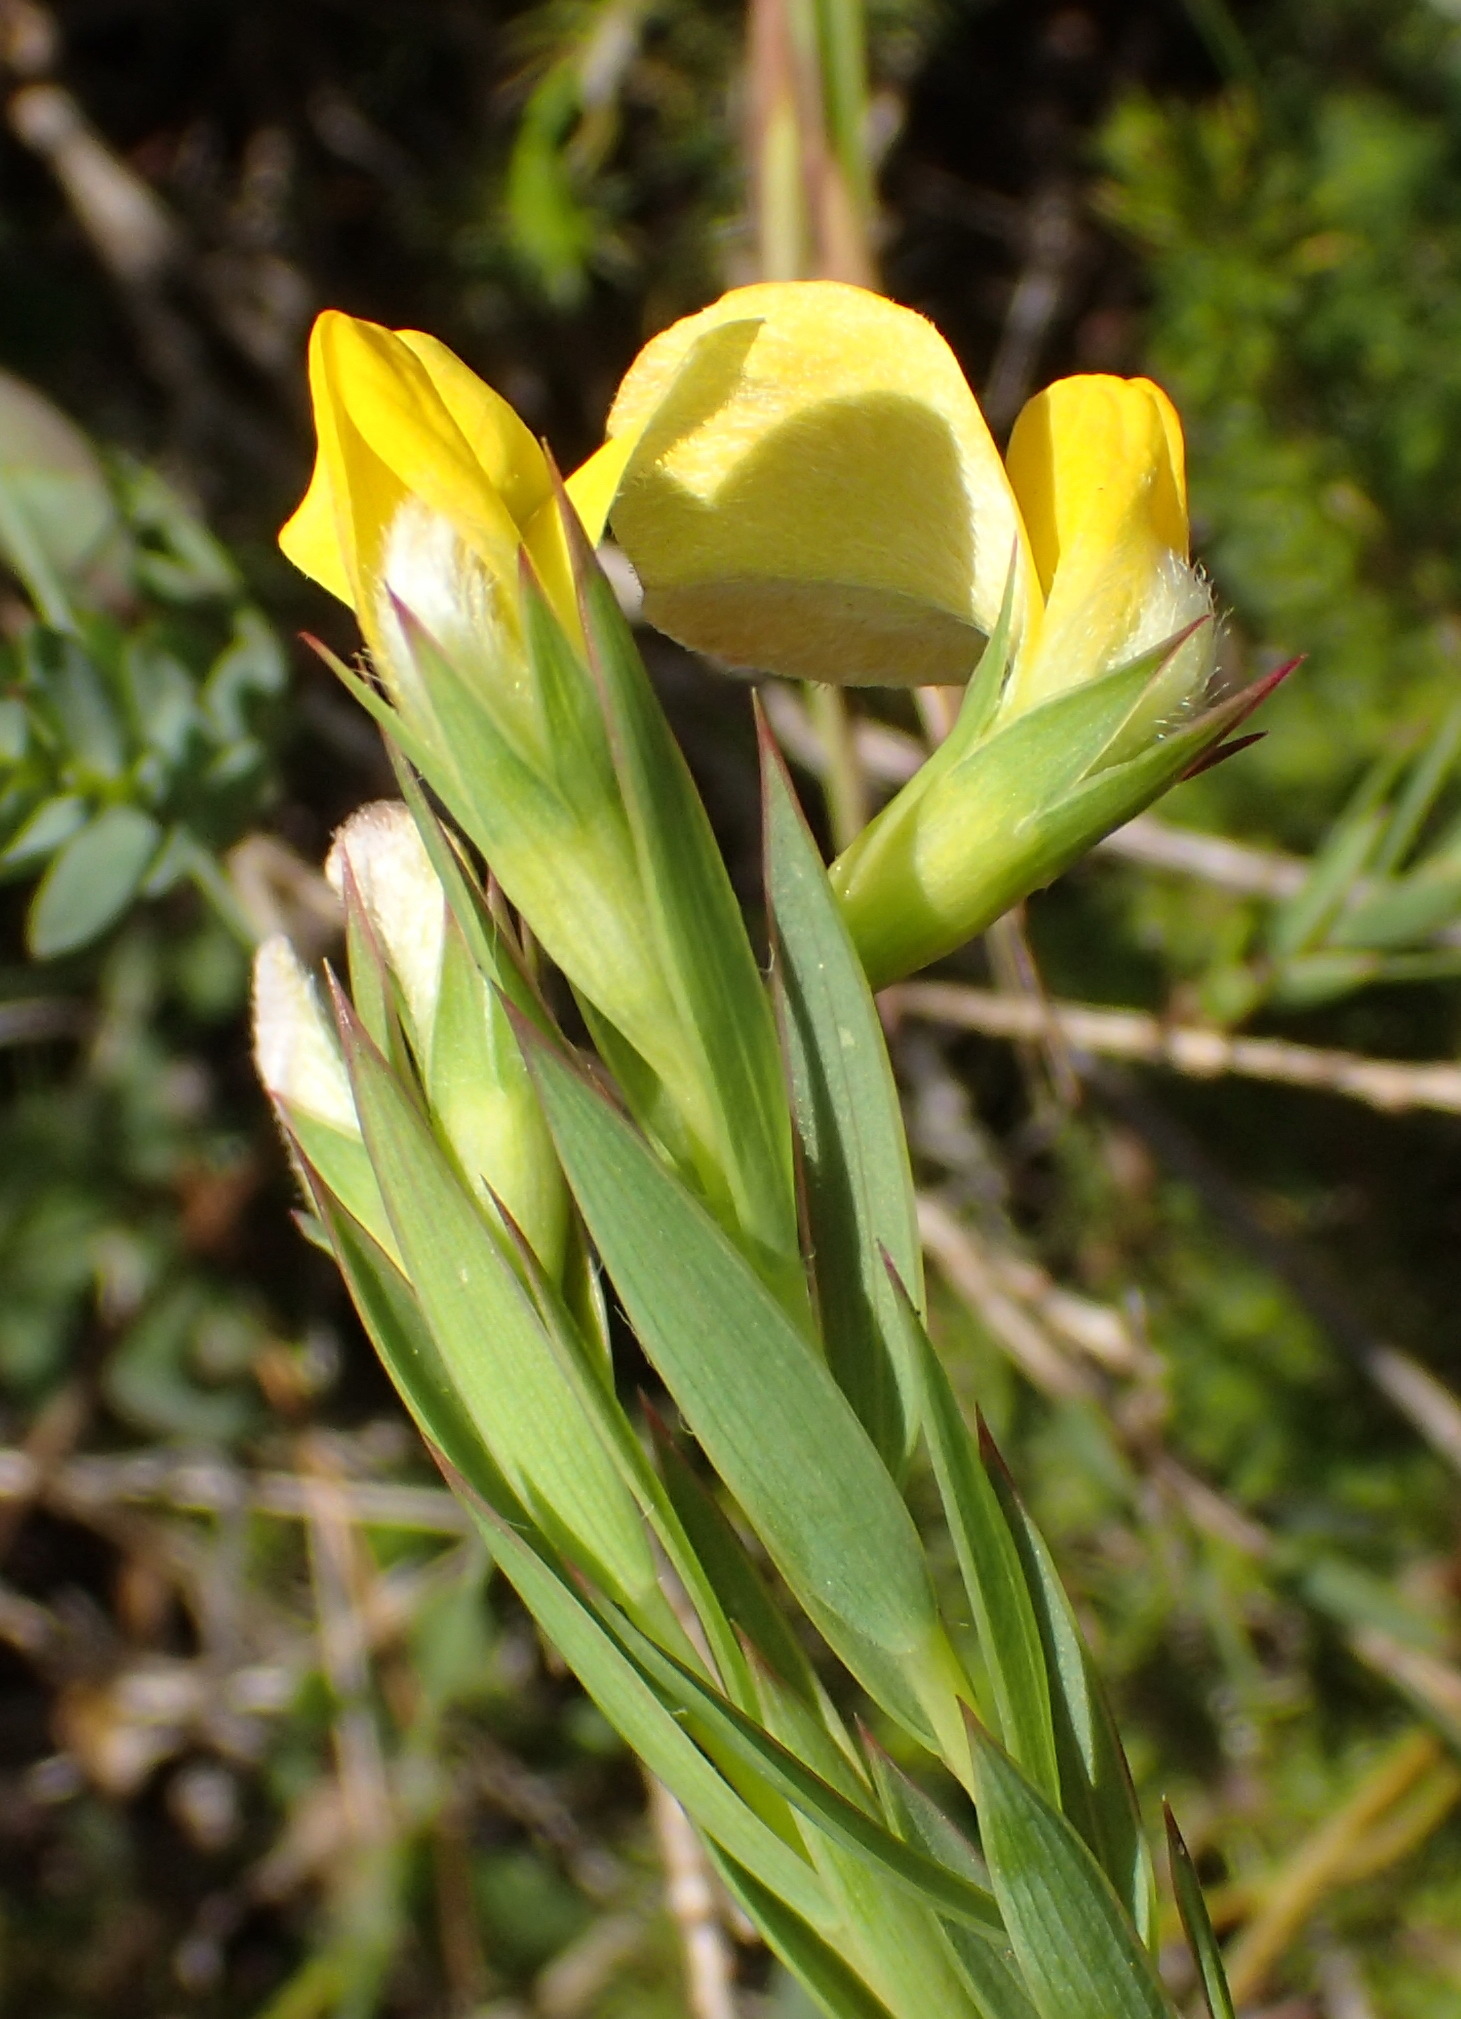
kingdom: Plantae
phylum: Tracheophyta
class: Magnoliopsida
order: Fabales
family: Fabaceae
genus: Aspalathus
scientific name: Aspalathus angustifolia
